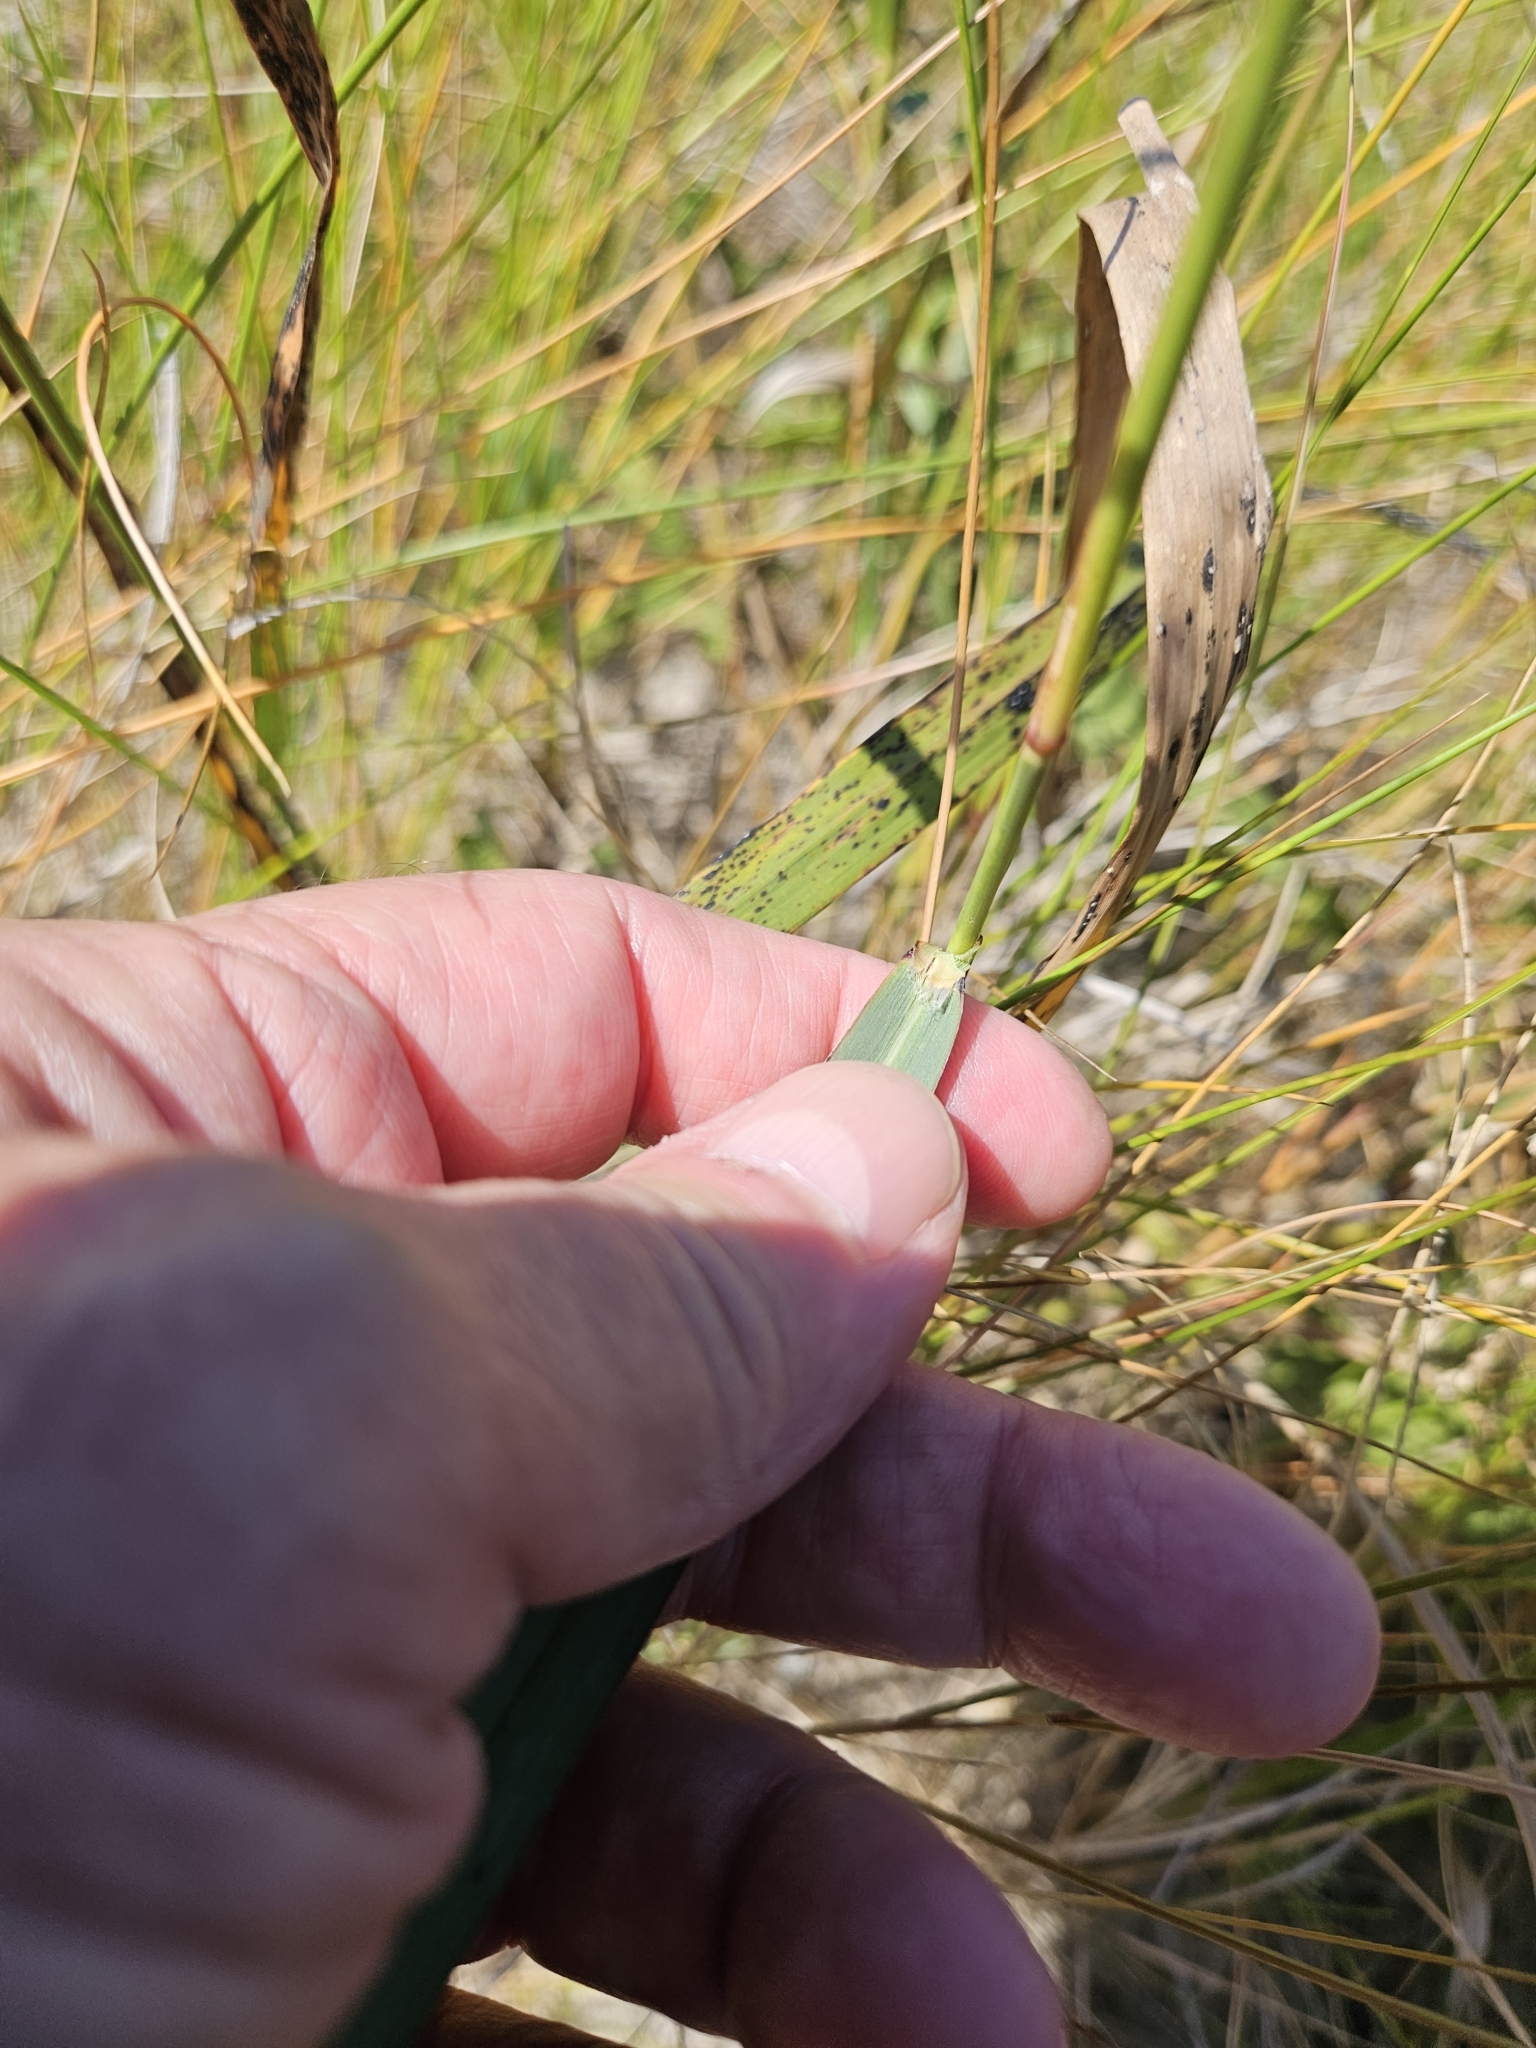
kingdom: Plantae
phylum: Tracheophyta
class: Liliopsida
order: Poales
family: Poaceae
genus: Panicum
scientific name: Panicum virgatum
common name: Switchgrass
